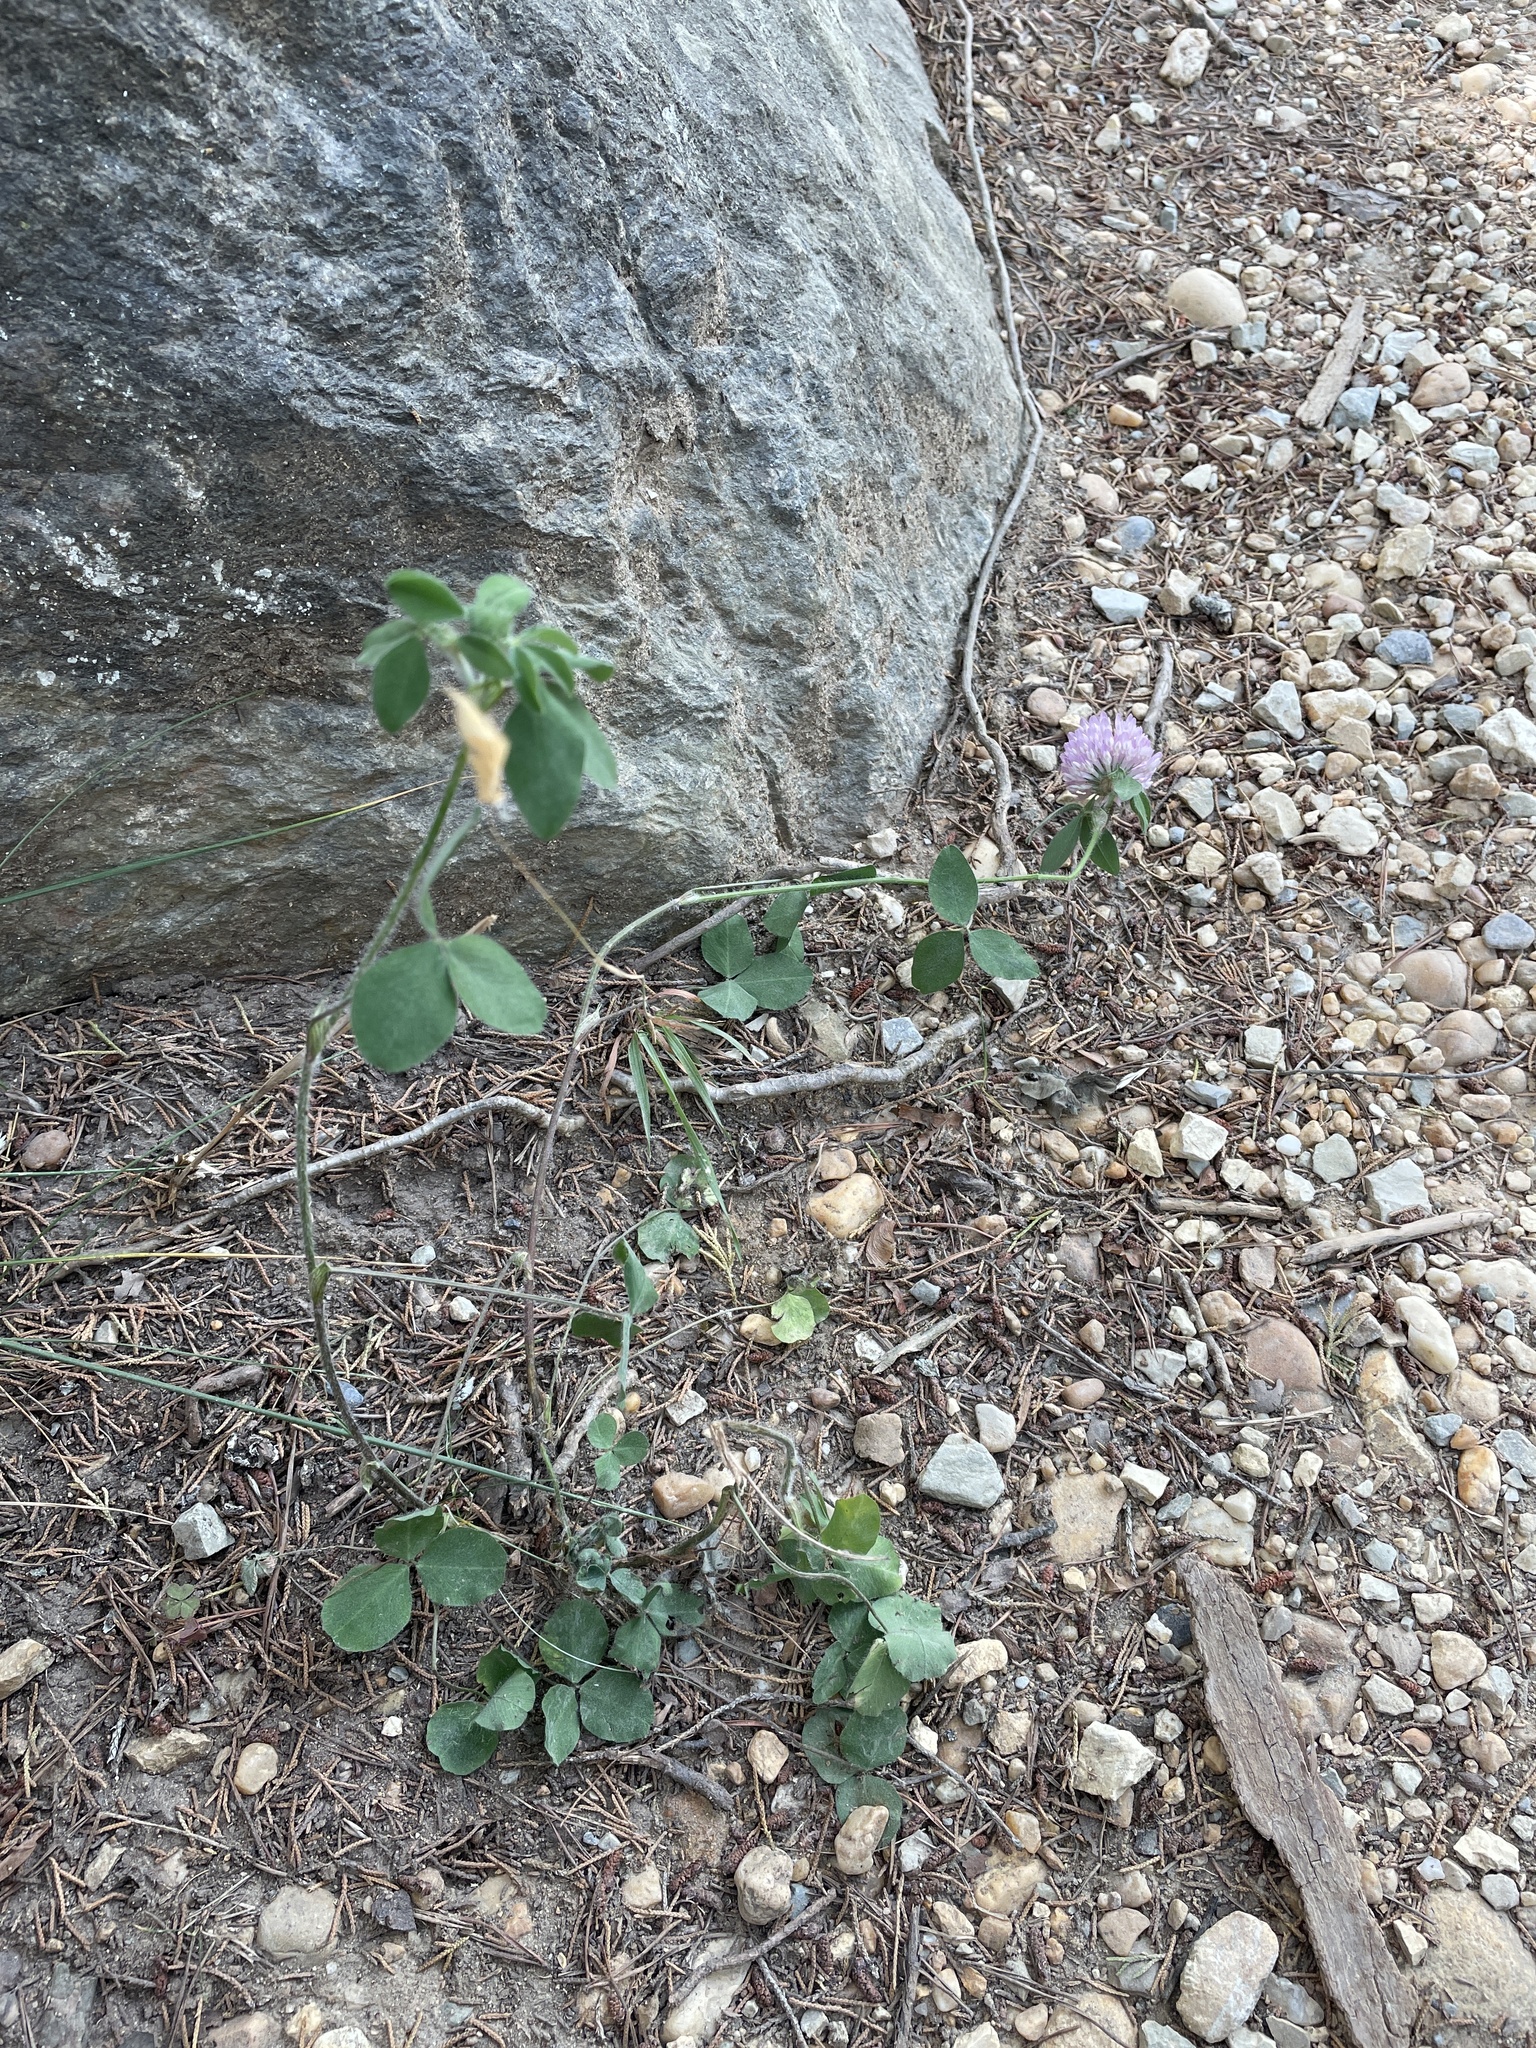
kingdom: Plantae
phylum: Tracheophyta
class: Magnoliopsida
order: Fabales
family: Fabaceae
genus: Trifolium
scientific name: Trifolium pratense
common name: Red clover
